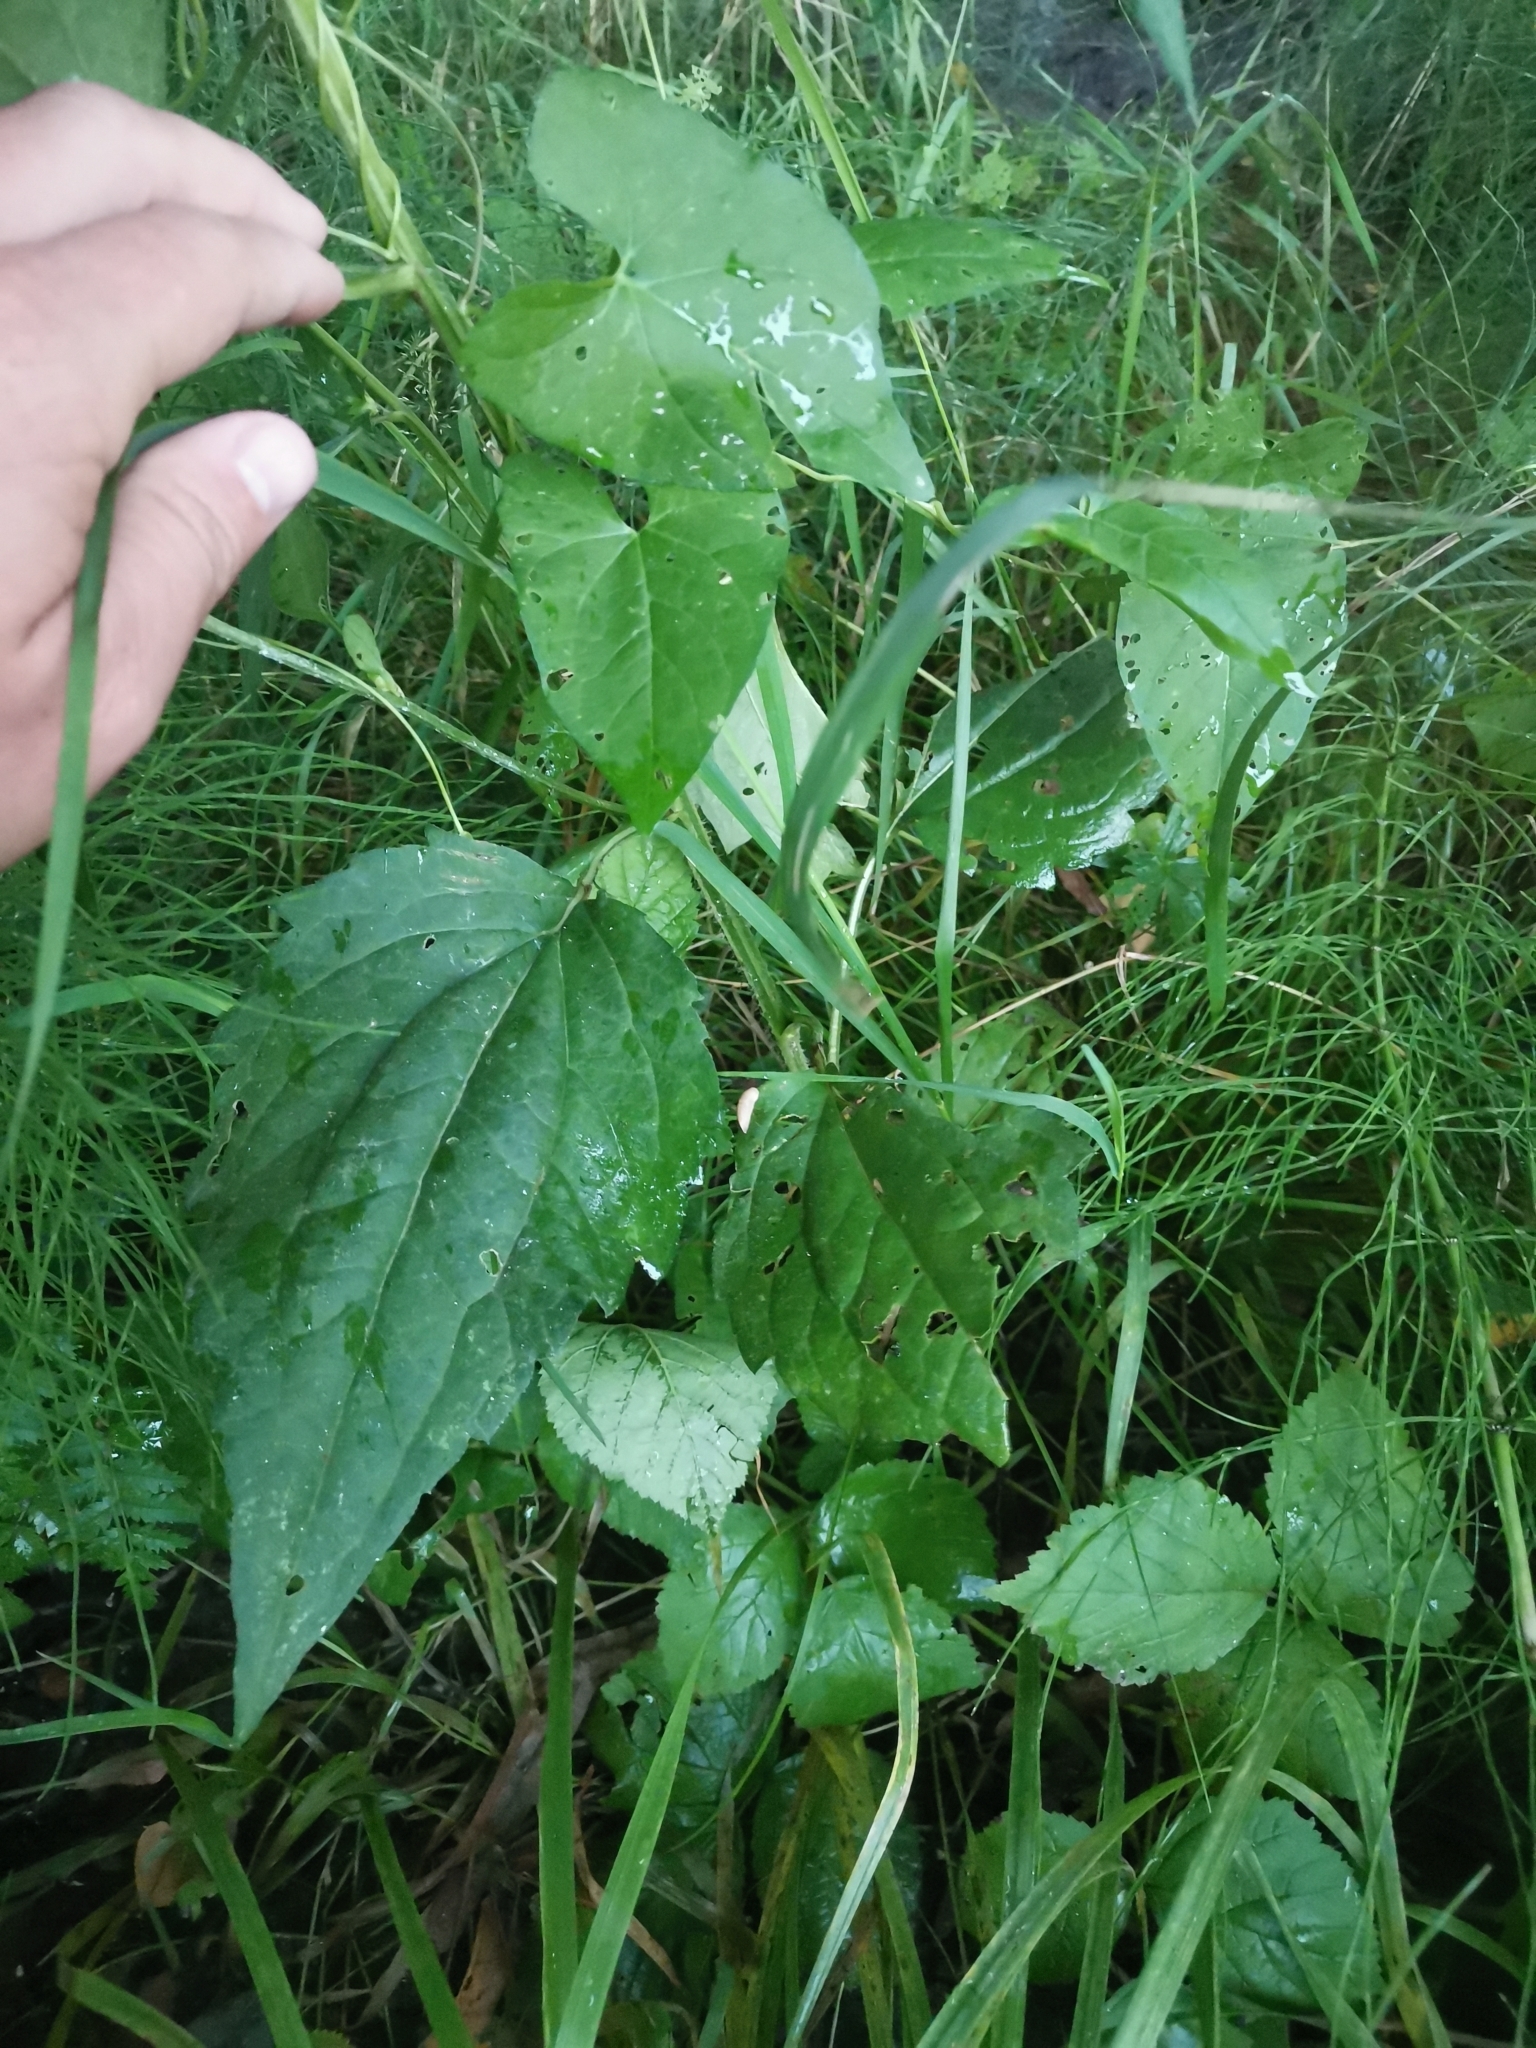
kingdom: Plantae
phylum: Tracheophyta
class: Magnoliopsida
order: Asterales
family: Asteraceae
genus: Rudbeckia
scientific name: Rudbeckia hirta
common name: Black-eyed-susan
